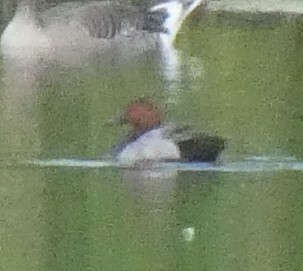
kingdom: Animalia
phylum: Chordata
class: Aves
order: Anseriformes
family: Anatidae
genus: Aythya
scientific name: Aythya ferina
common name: Common pochard
